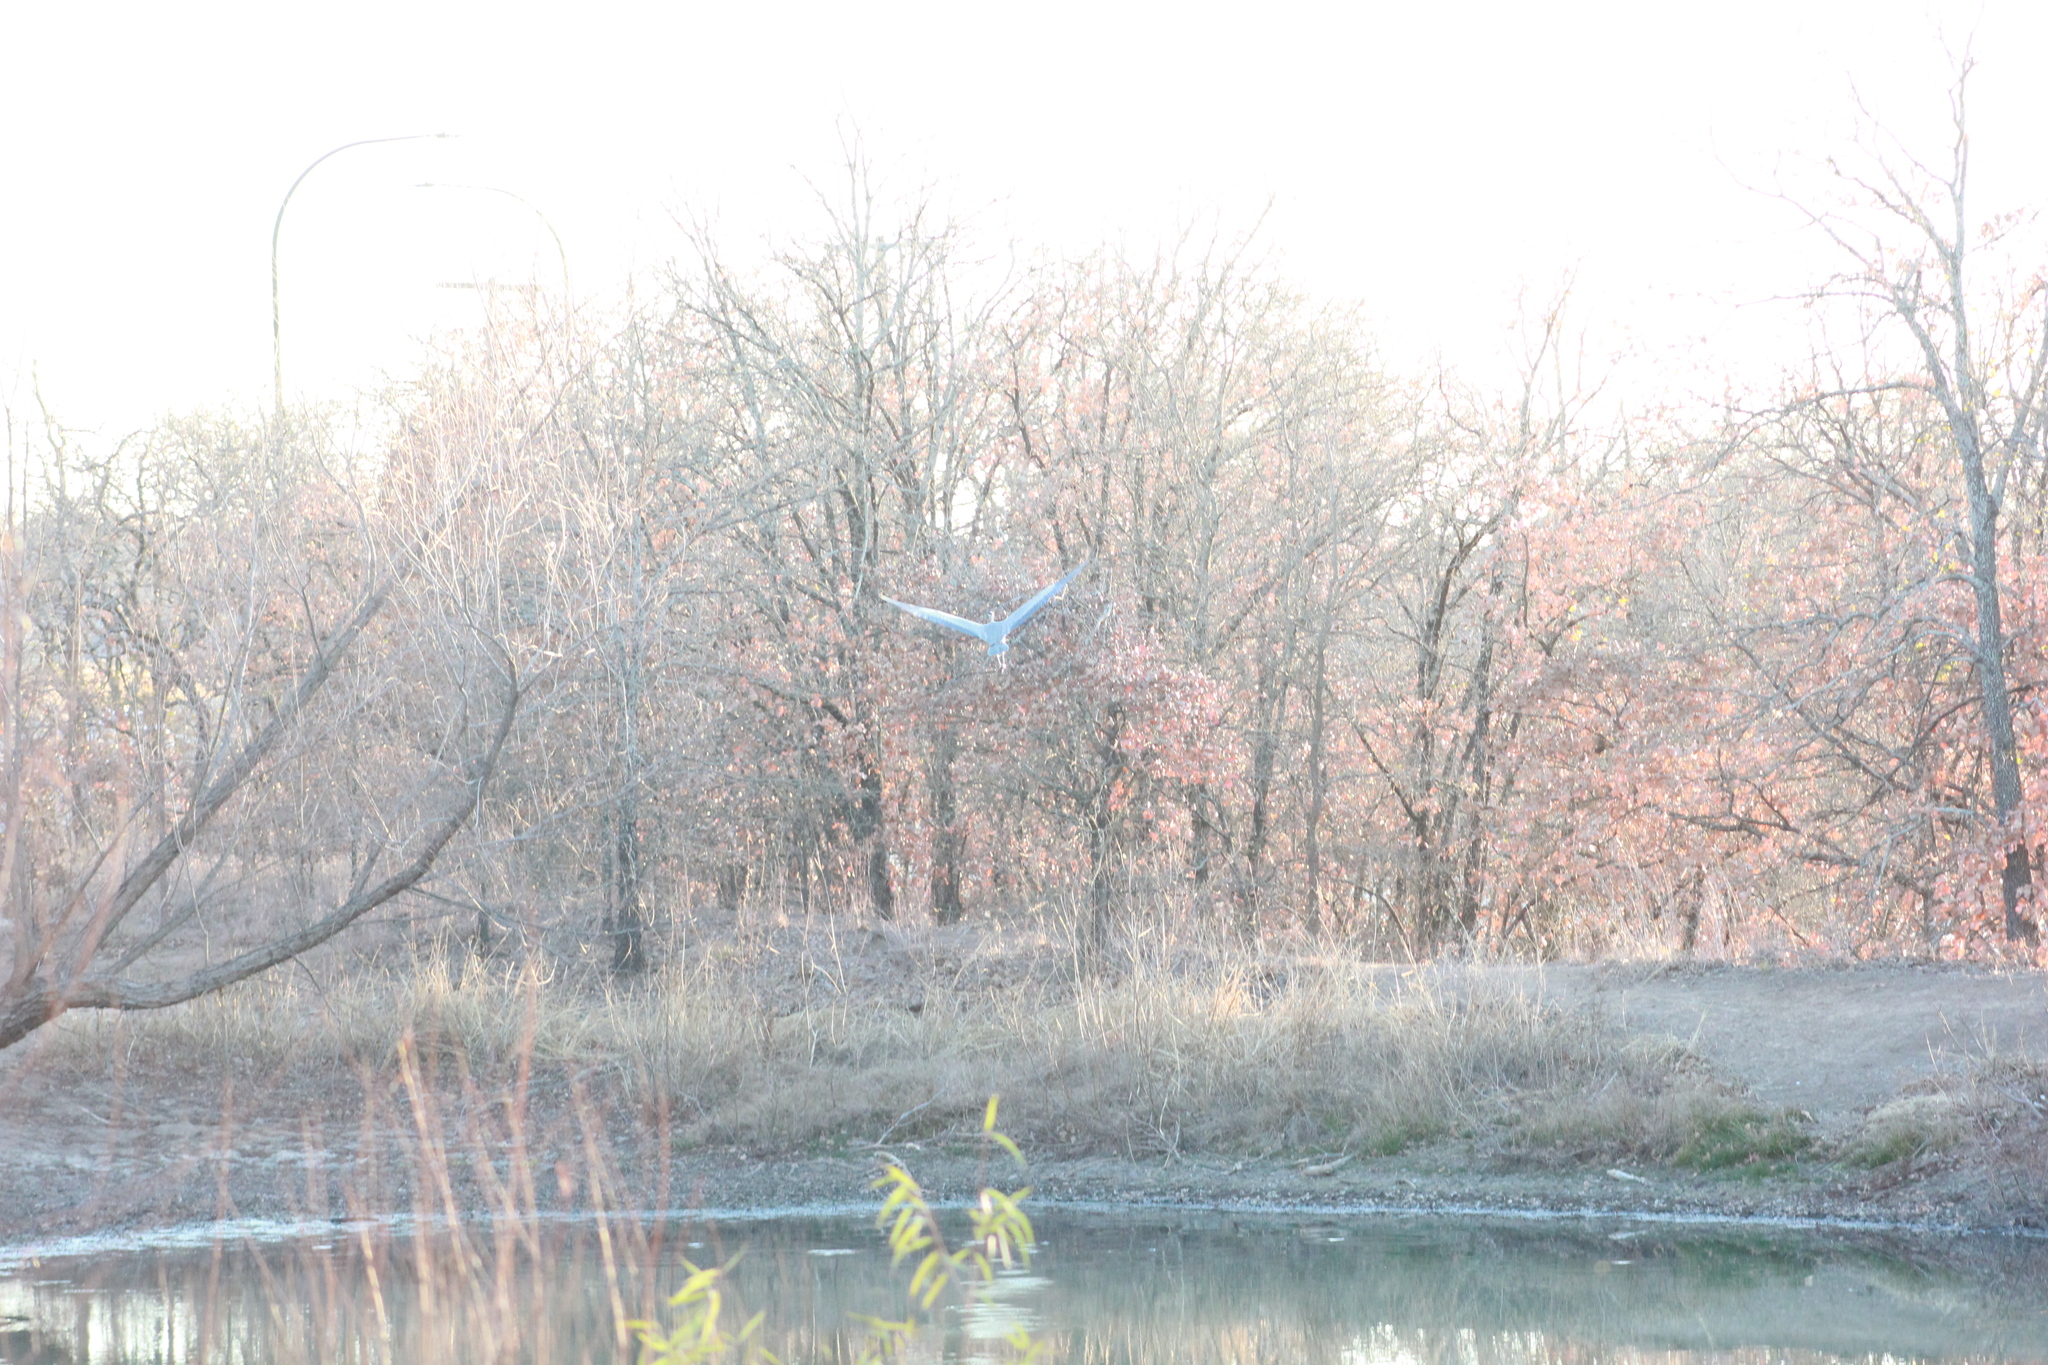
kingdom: Animalia
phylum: Chordata
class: Aves
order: Pelecaniformes
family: Ardeidae
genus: Ardea
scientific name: Ardea herodias
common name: Great blue heron
